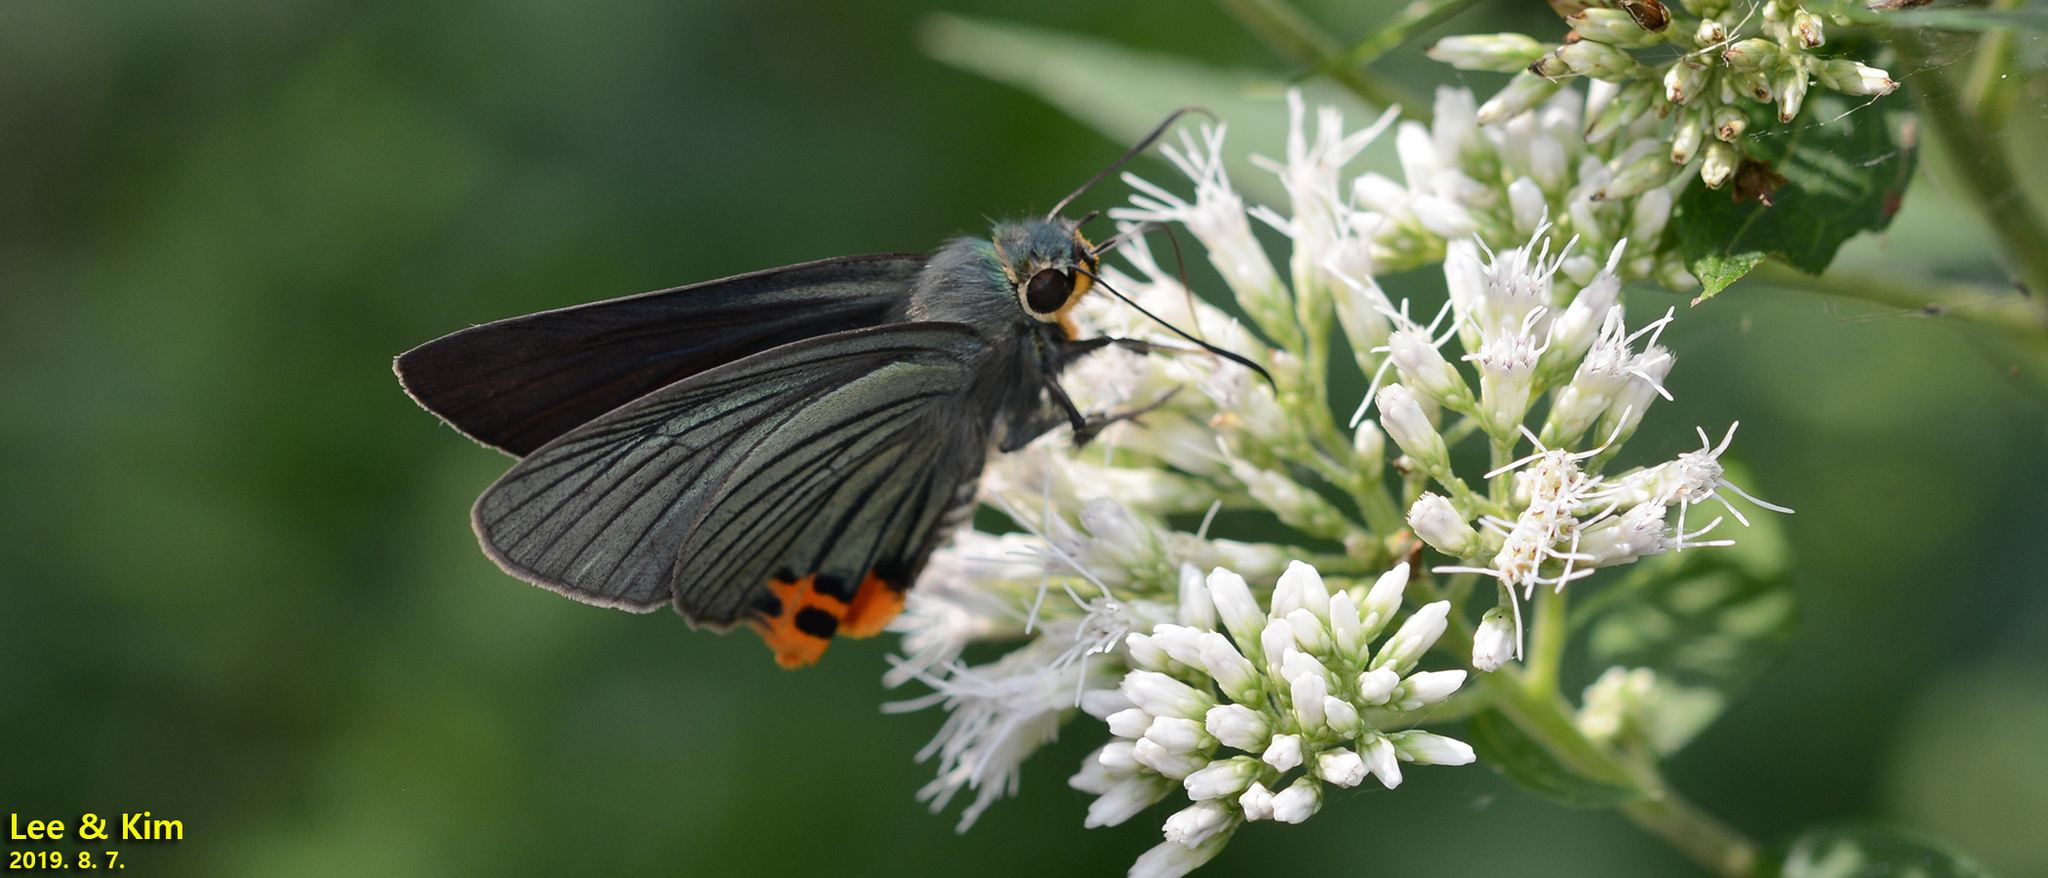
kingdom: Animalia
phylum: Arthropoda
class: Insecta
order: Lepidoptera
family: Hesperiidae
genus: Choaspes
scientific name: Choaspes benjaminii
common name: Indian awlking
